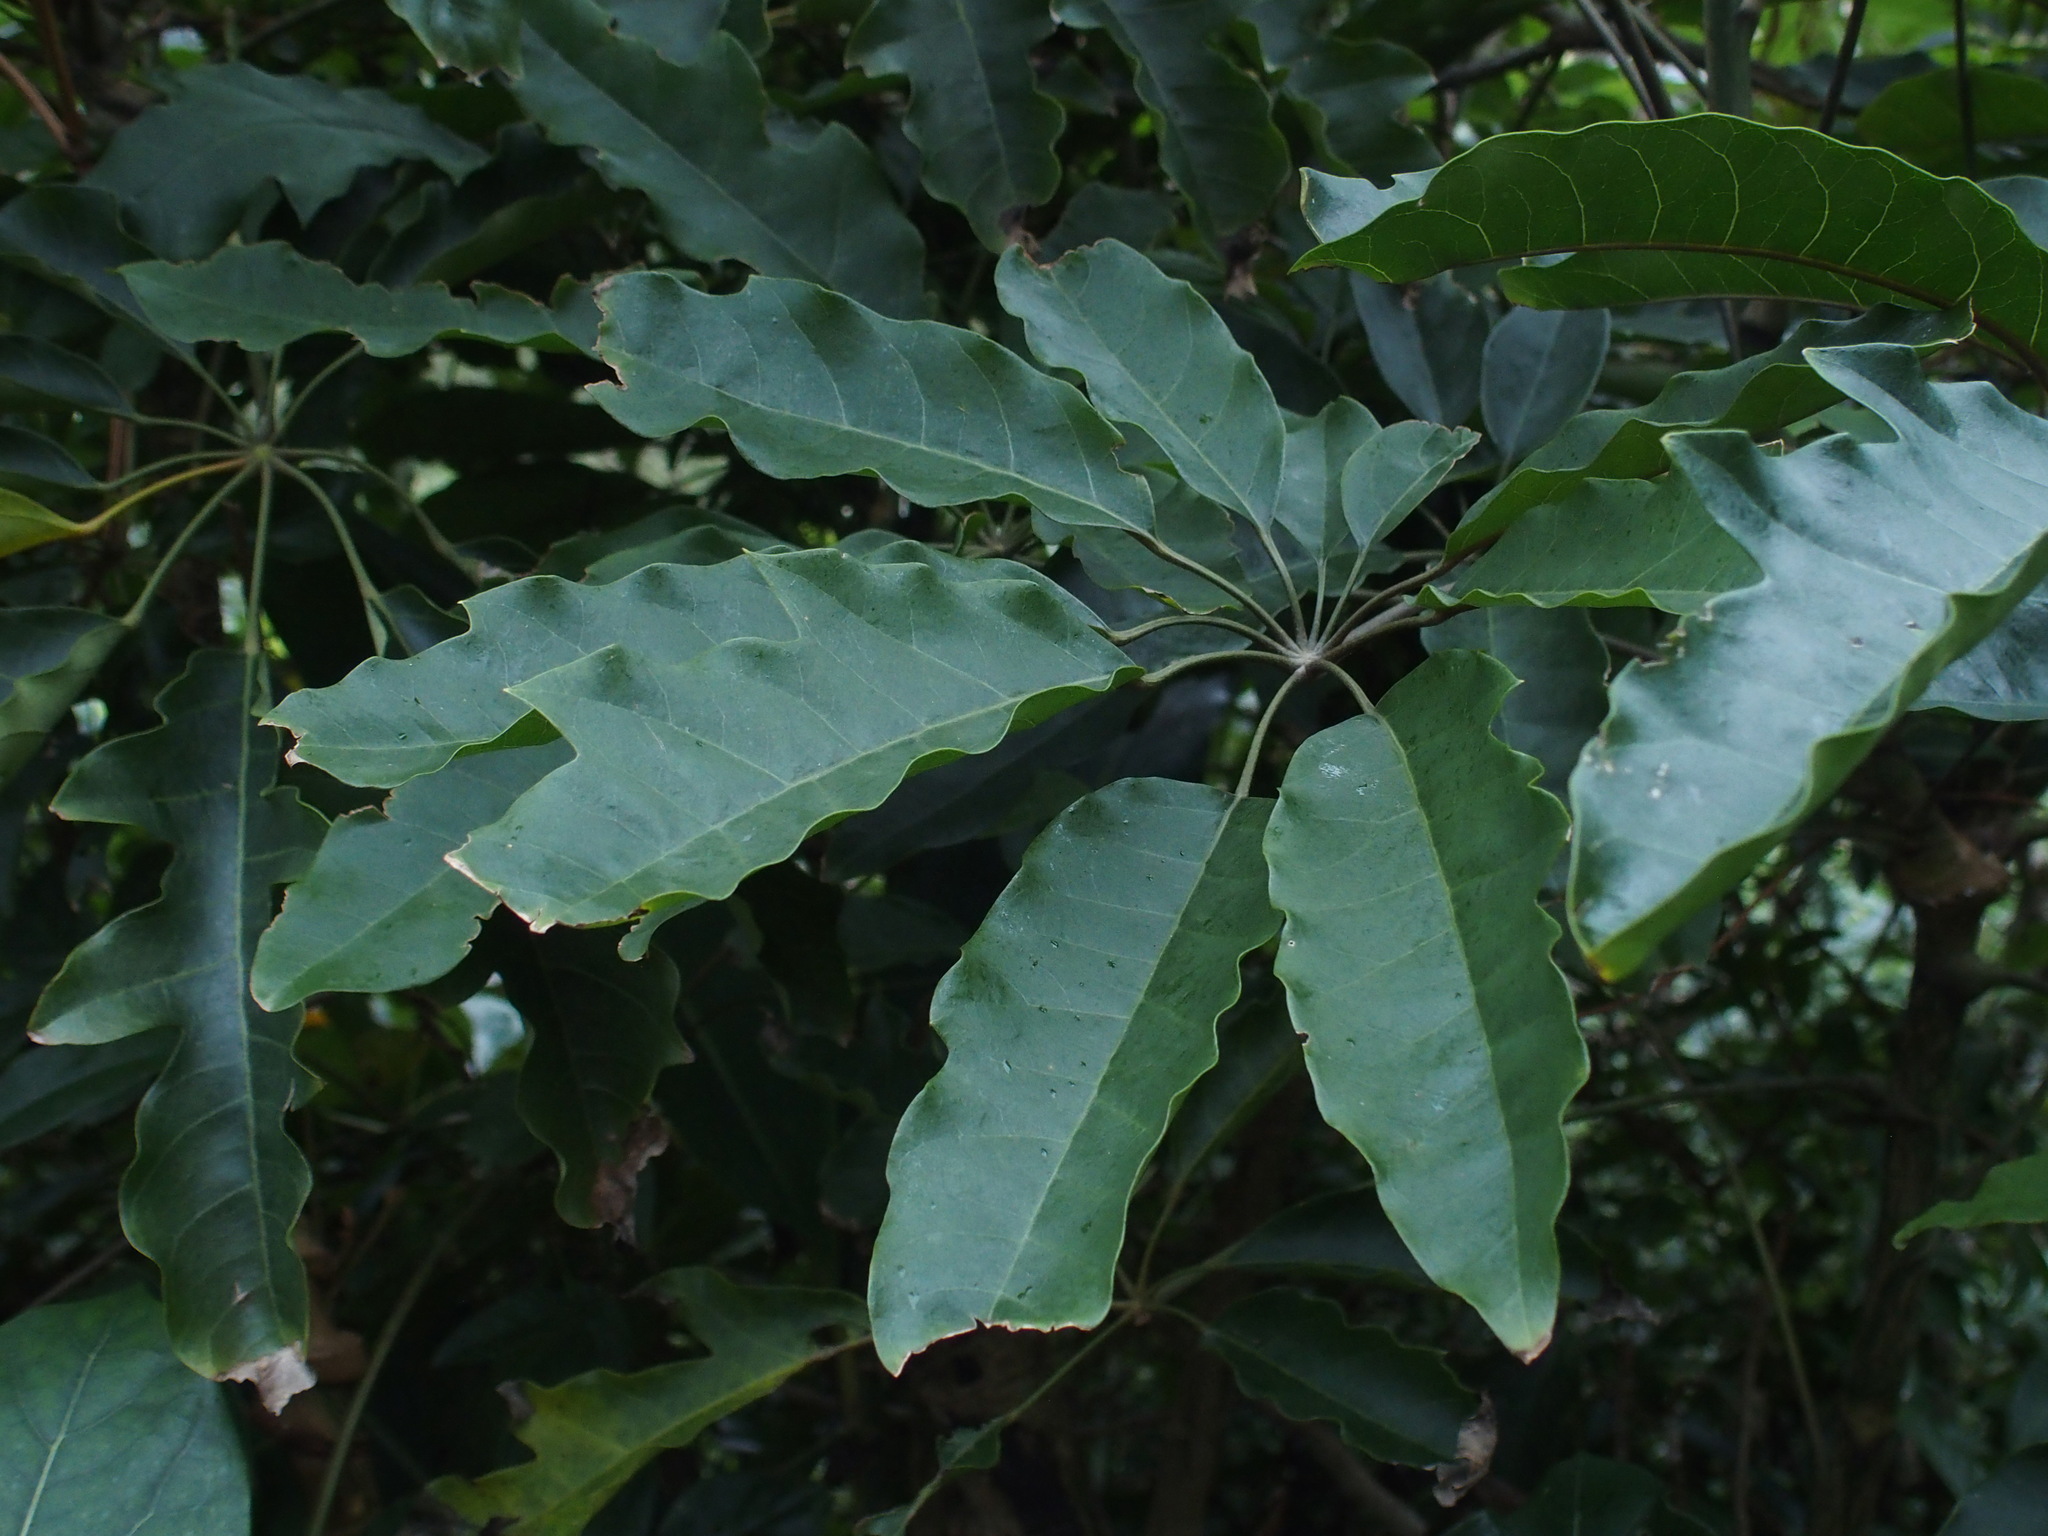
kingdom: Plantae
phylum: Tracheophyta
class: Magnoliopsida
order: Apiales
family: Araliaceae
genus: Heptapleurum
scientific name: Heptapleurum heptaphyllum
